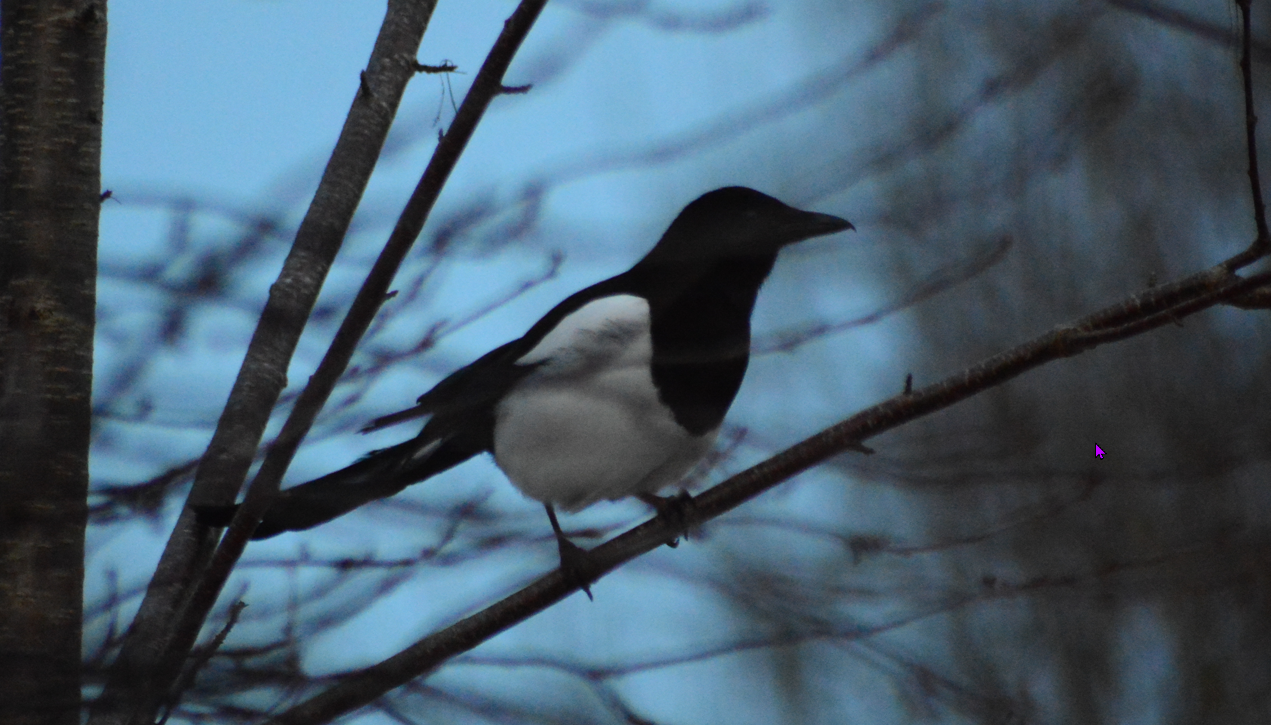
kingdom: Animalia
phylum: Chordata
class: Aves
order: Passeriformes
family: Corvidae
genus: Pica
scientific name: Pica pica
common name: Eurasian magpie
